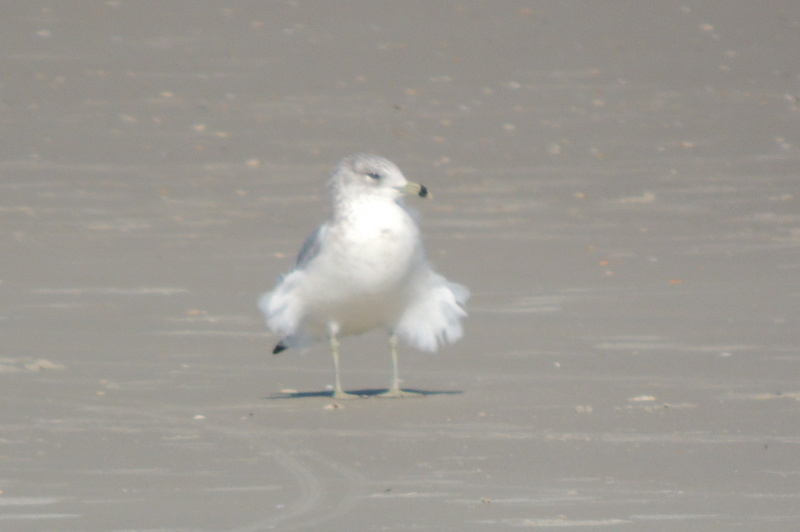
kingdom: Animalia
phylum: Chordata
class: Aves
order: Charadriiformes
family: Laridae
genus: Larus
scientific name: Larus delawarensis
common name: Ring-billed gull
